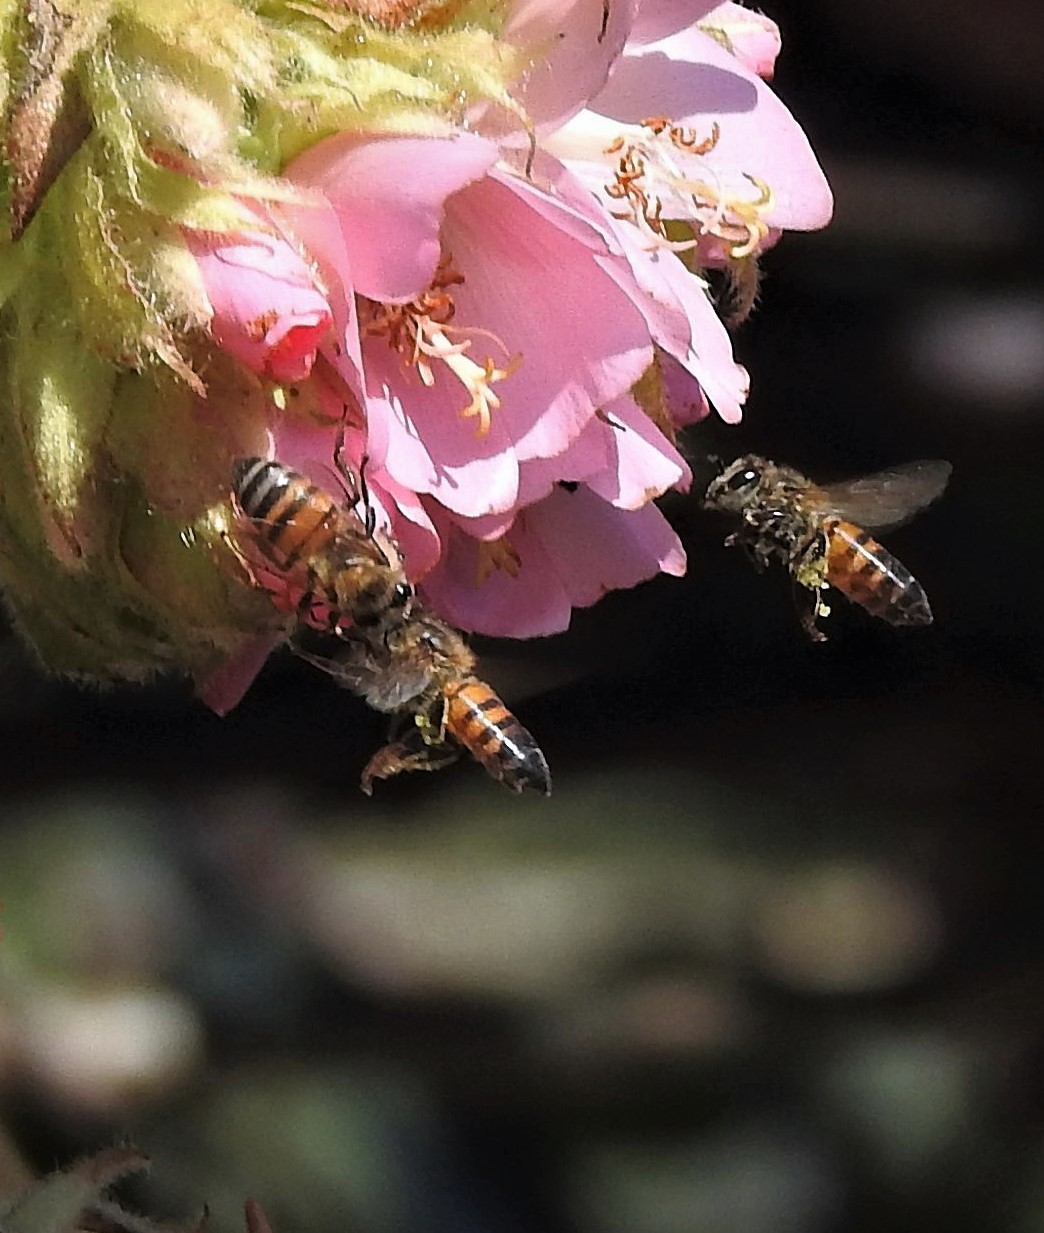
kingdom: Animalia
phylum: Arthropoda
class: Insecta
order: Hymenoptera
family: Apidae
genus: Apis
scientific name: Apis mellifera
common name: Honey bee
